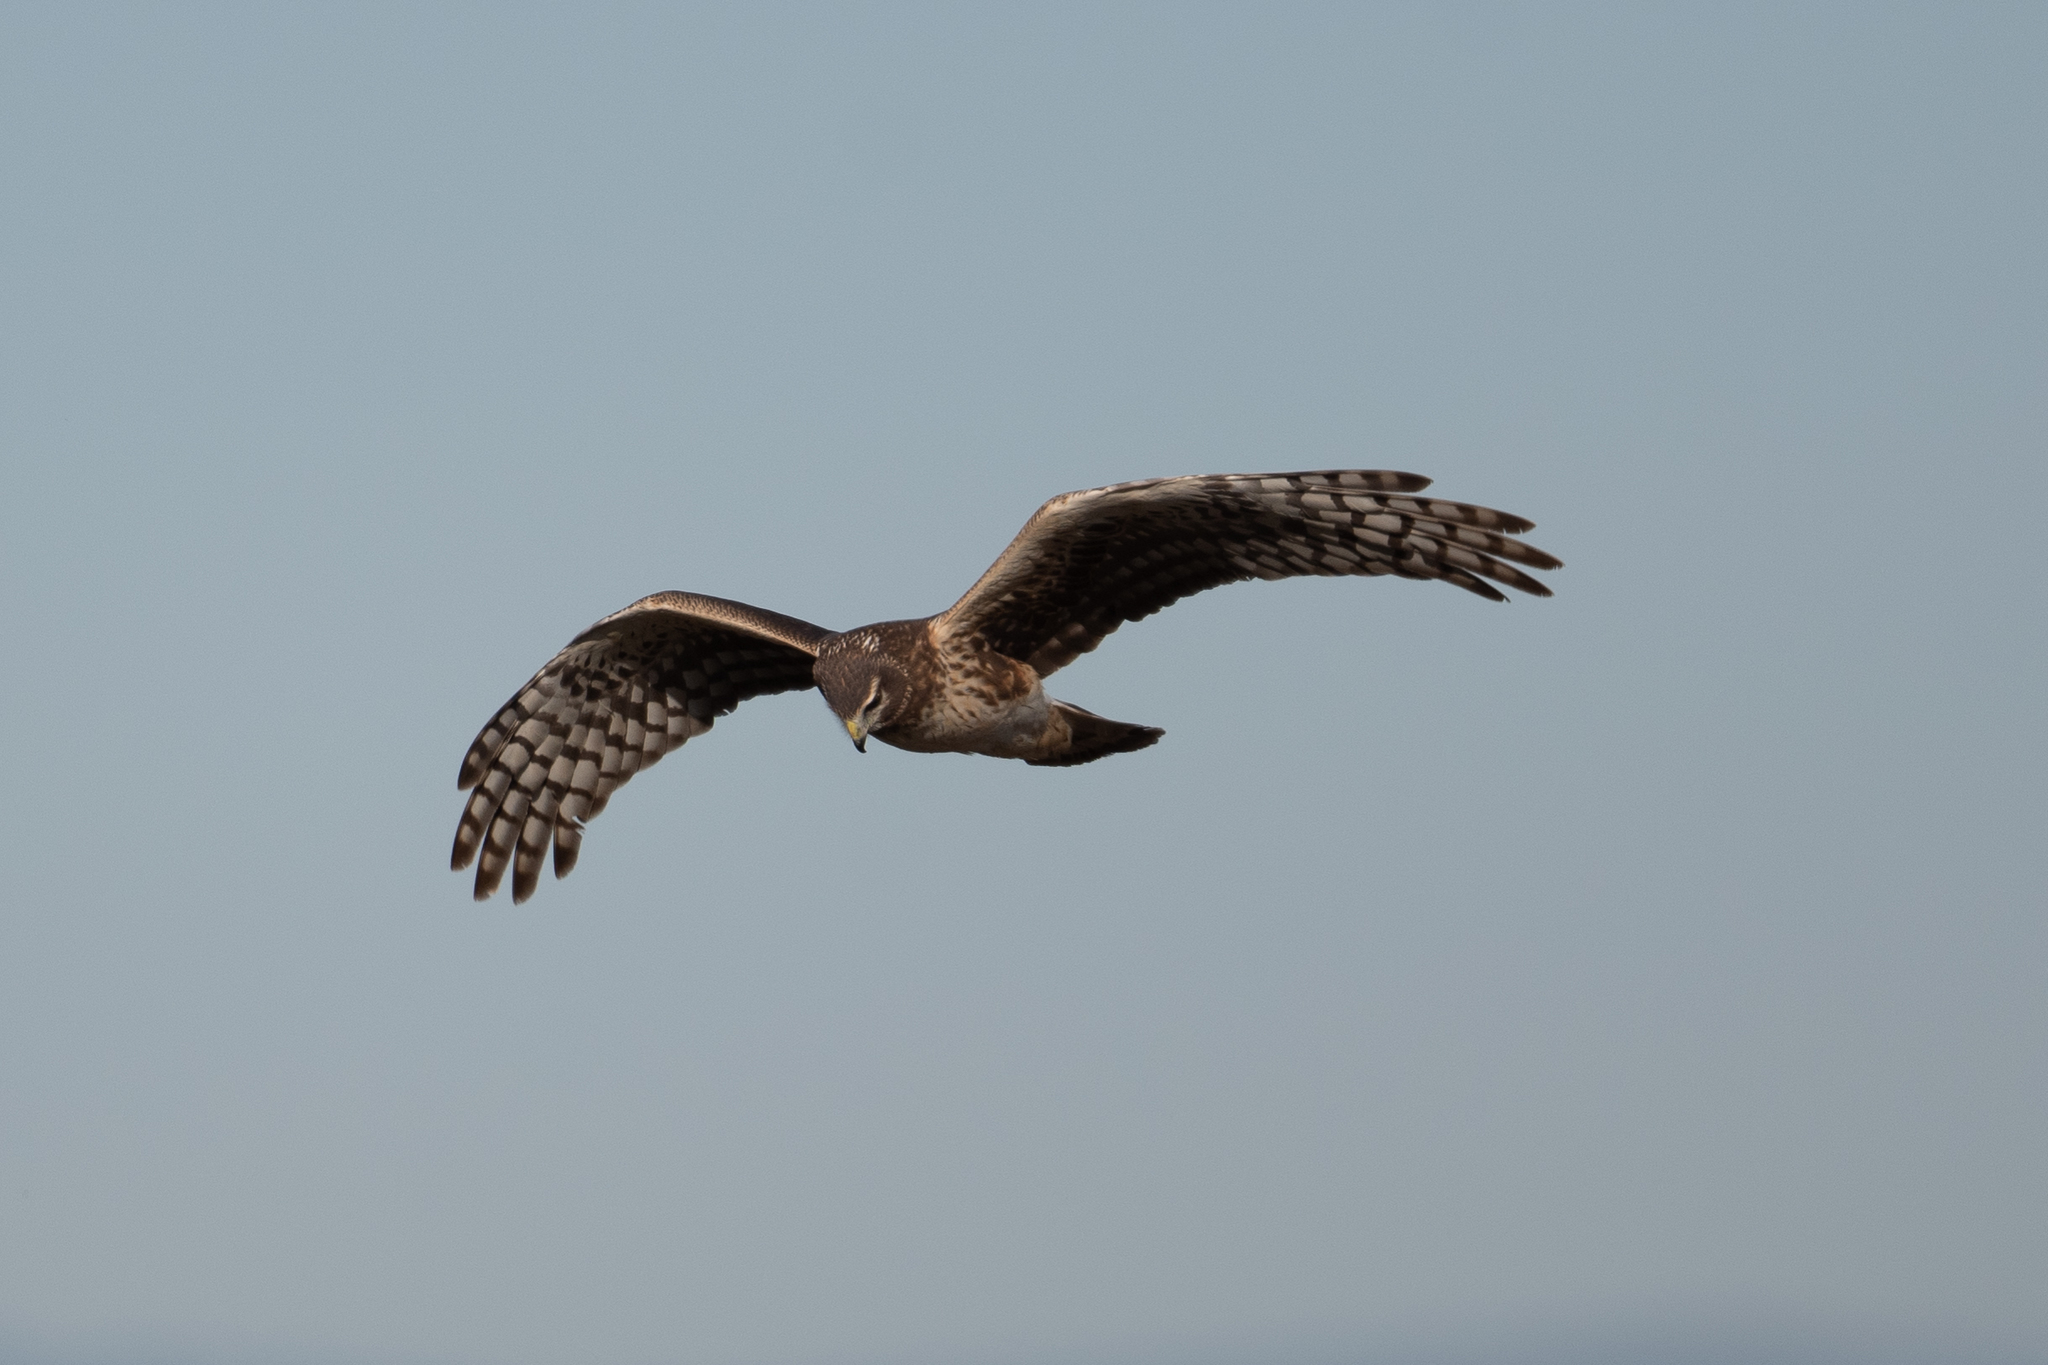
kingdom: Animalia
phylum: Chordata
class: Aves
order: Accipitriformes
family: Accipitridae
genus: Circus
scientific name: Circus cyaneus
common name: Hen harrier
